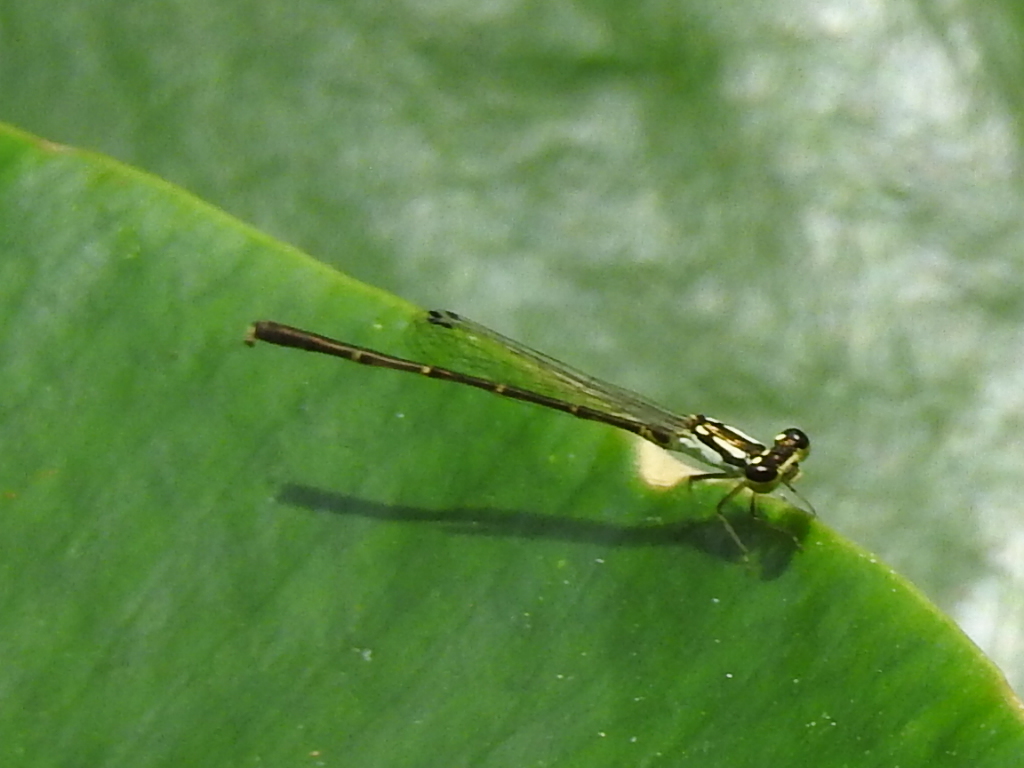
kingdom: Animalia
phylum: Arthropoda
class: Insecta
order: Odonata
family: Coenagrionidae
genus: Ischnura
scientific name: Ischnura posita
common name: Fragile forktail
